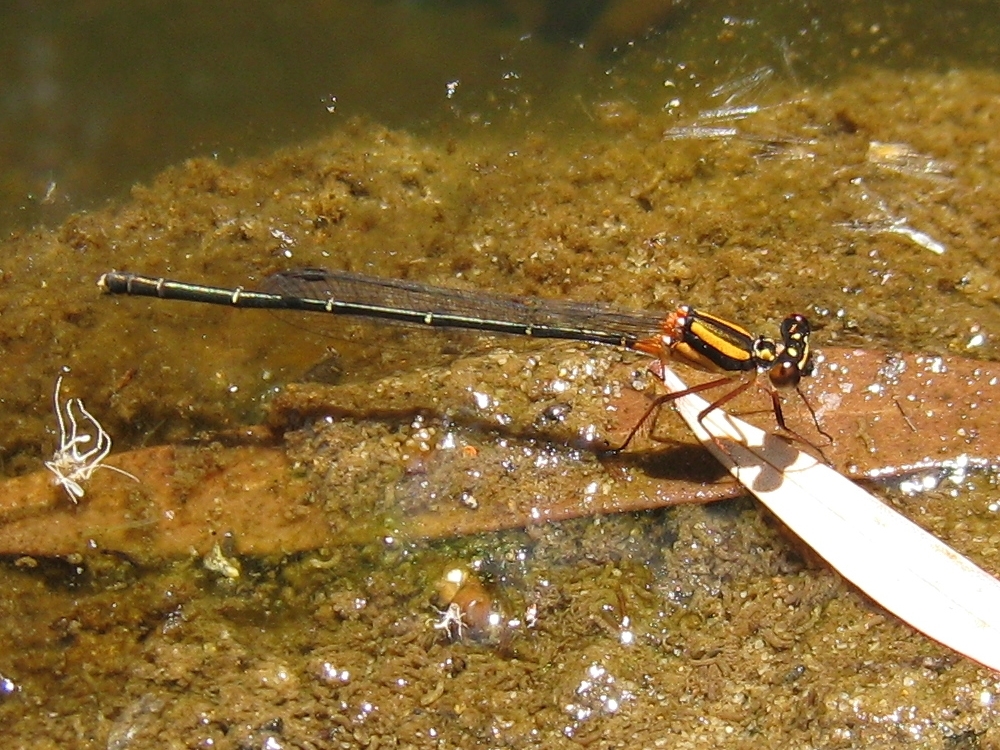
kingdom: Animalia
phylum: Arthropoda
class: Insecta
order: Odonata
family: Platycnemididae
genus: Nososticta
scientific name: Nososticta solida
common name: Orange threadtail
